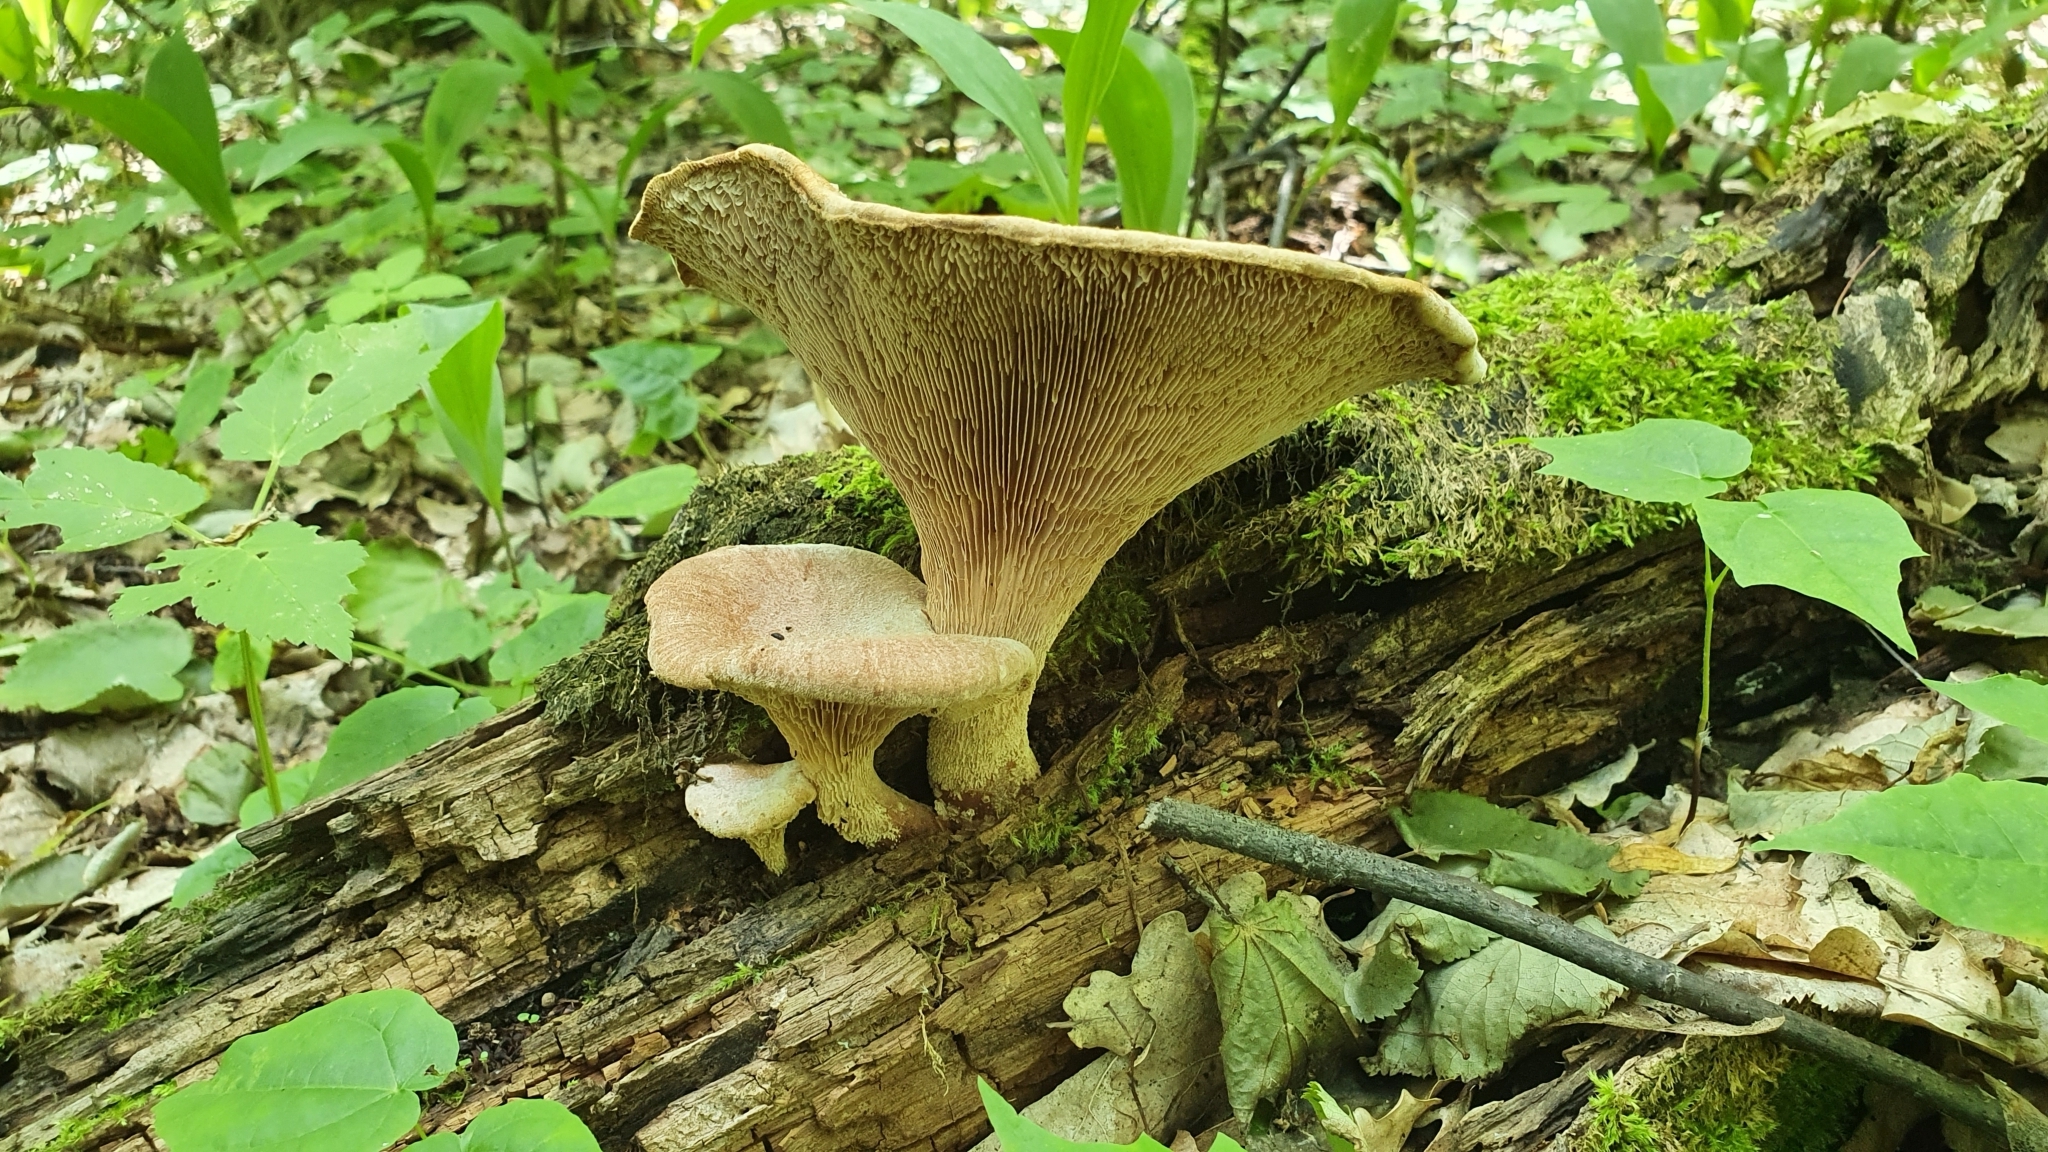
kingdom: Fungi
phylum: Basidiomycota
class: Agaricomycetes
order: Gloeophyllales
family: Gloeophyllaceae
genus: Neolentinus
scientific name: Neolentinus cyathiformis
